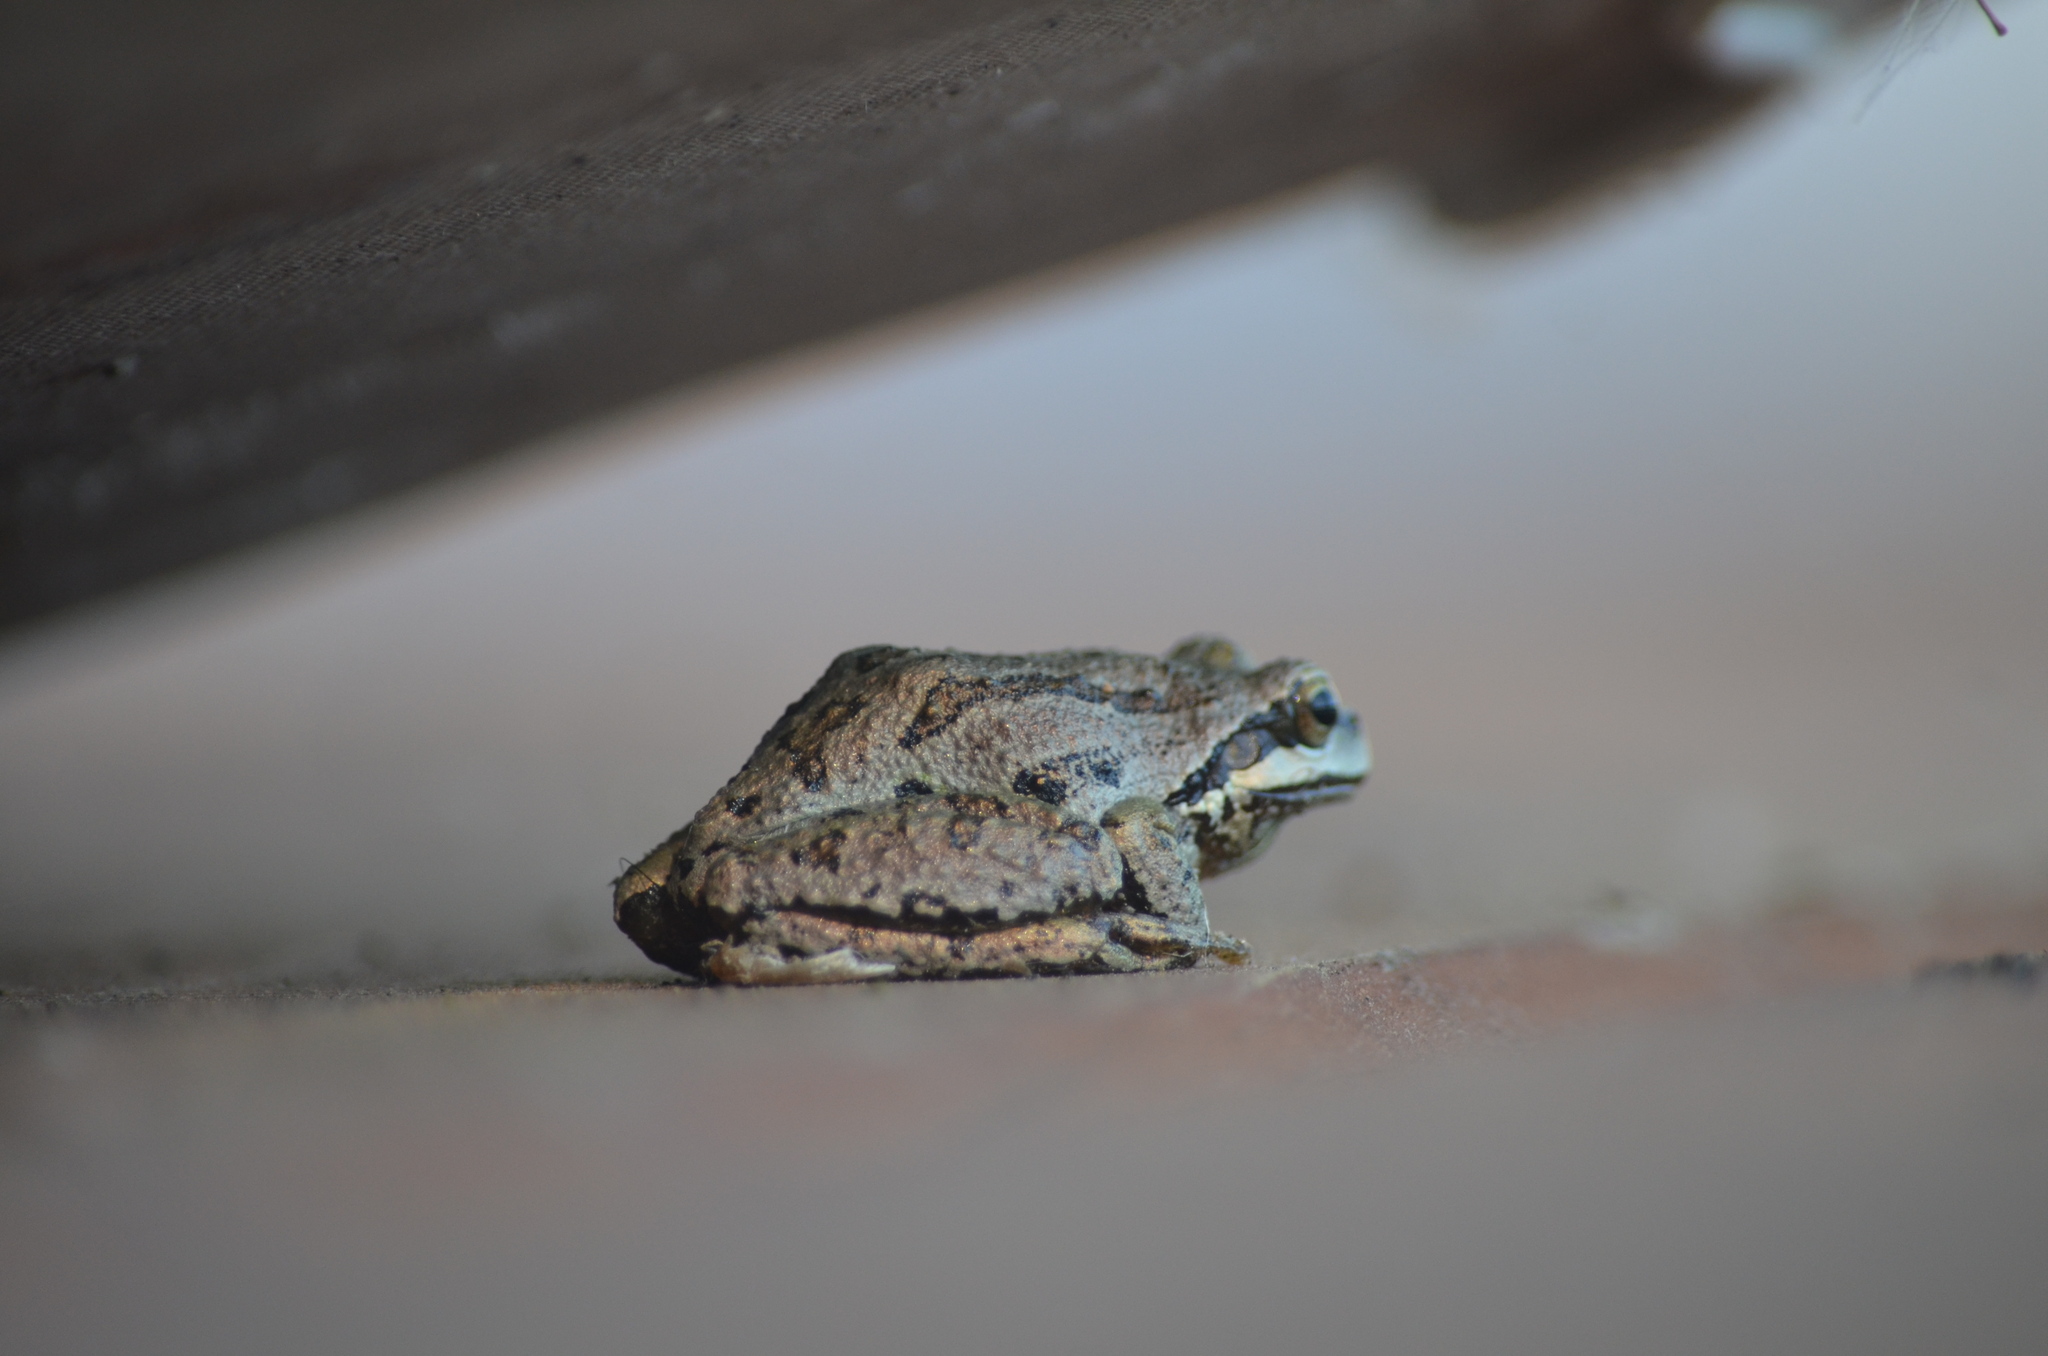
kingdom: Animalia
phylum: Chordata
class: Amphibia
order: Anura
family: Hylidae
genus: Pseudacris
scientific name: Pseudacris regilla
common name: Pacific chorus frog
